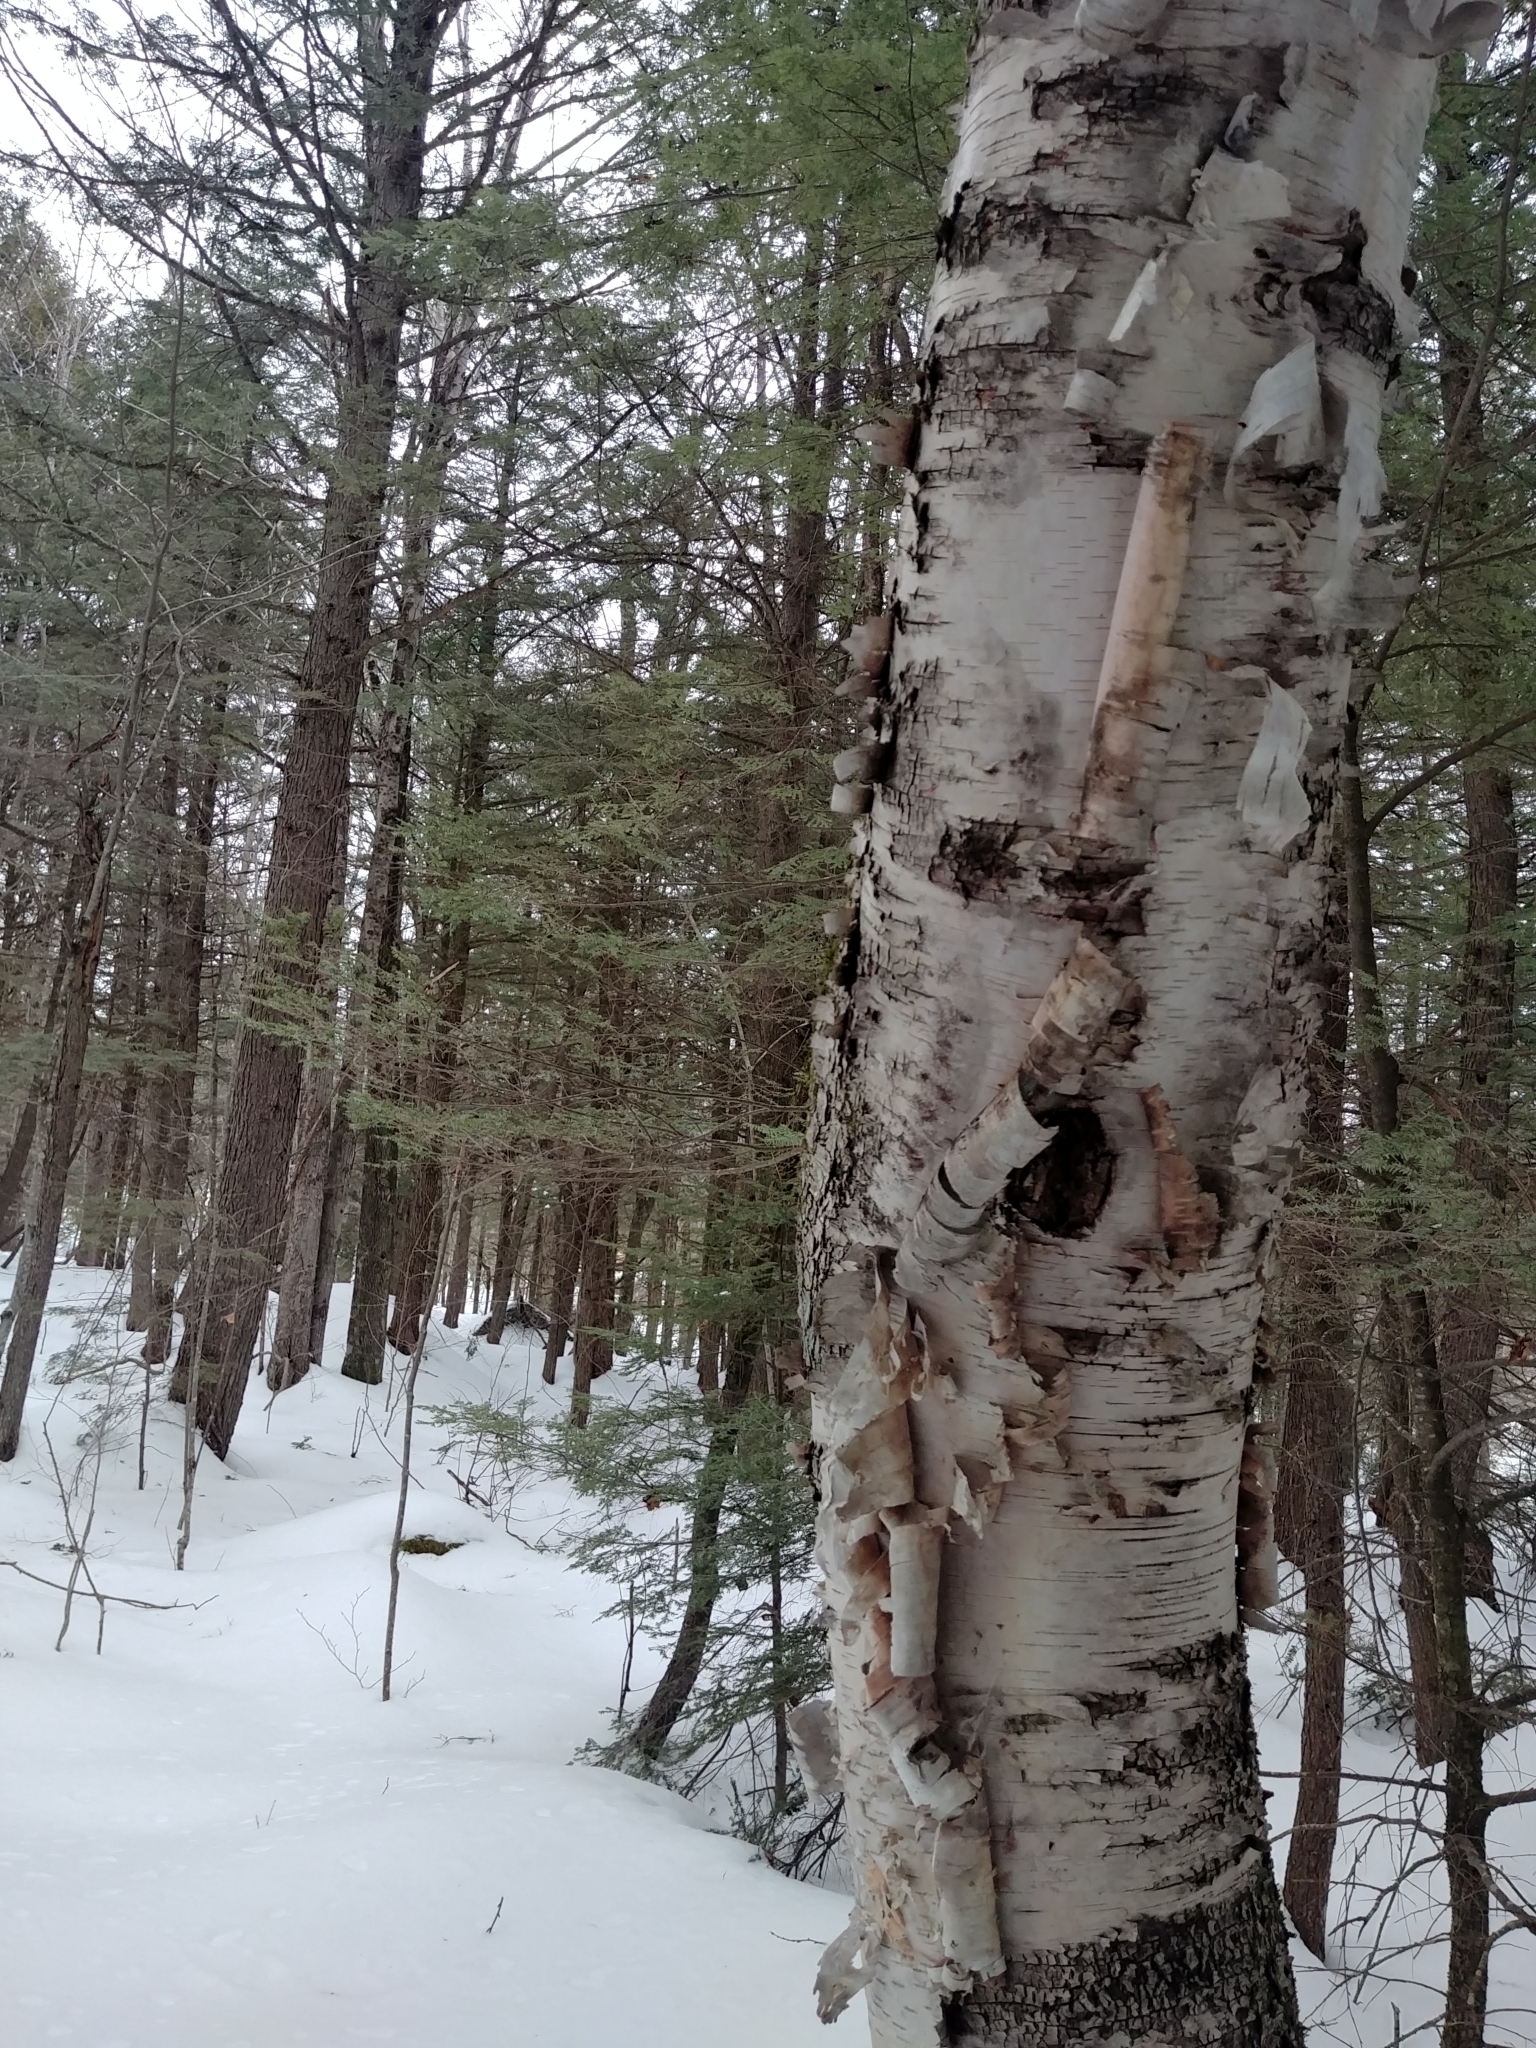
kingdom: Plantae
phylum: Tracheophyta
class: Magnoliopsida
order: Fagales
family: Betulaceae
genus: Betula
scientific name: Betula papyrifera
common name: Paper birch
